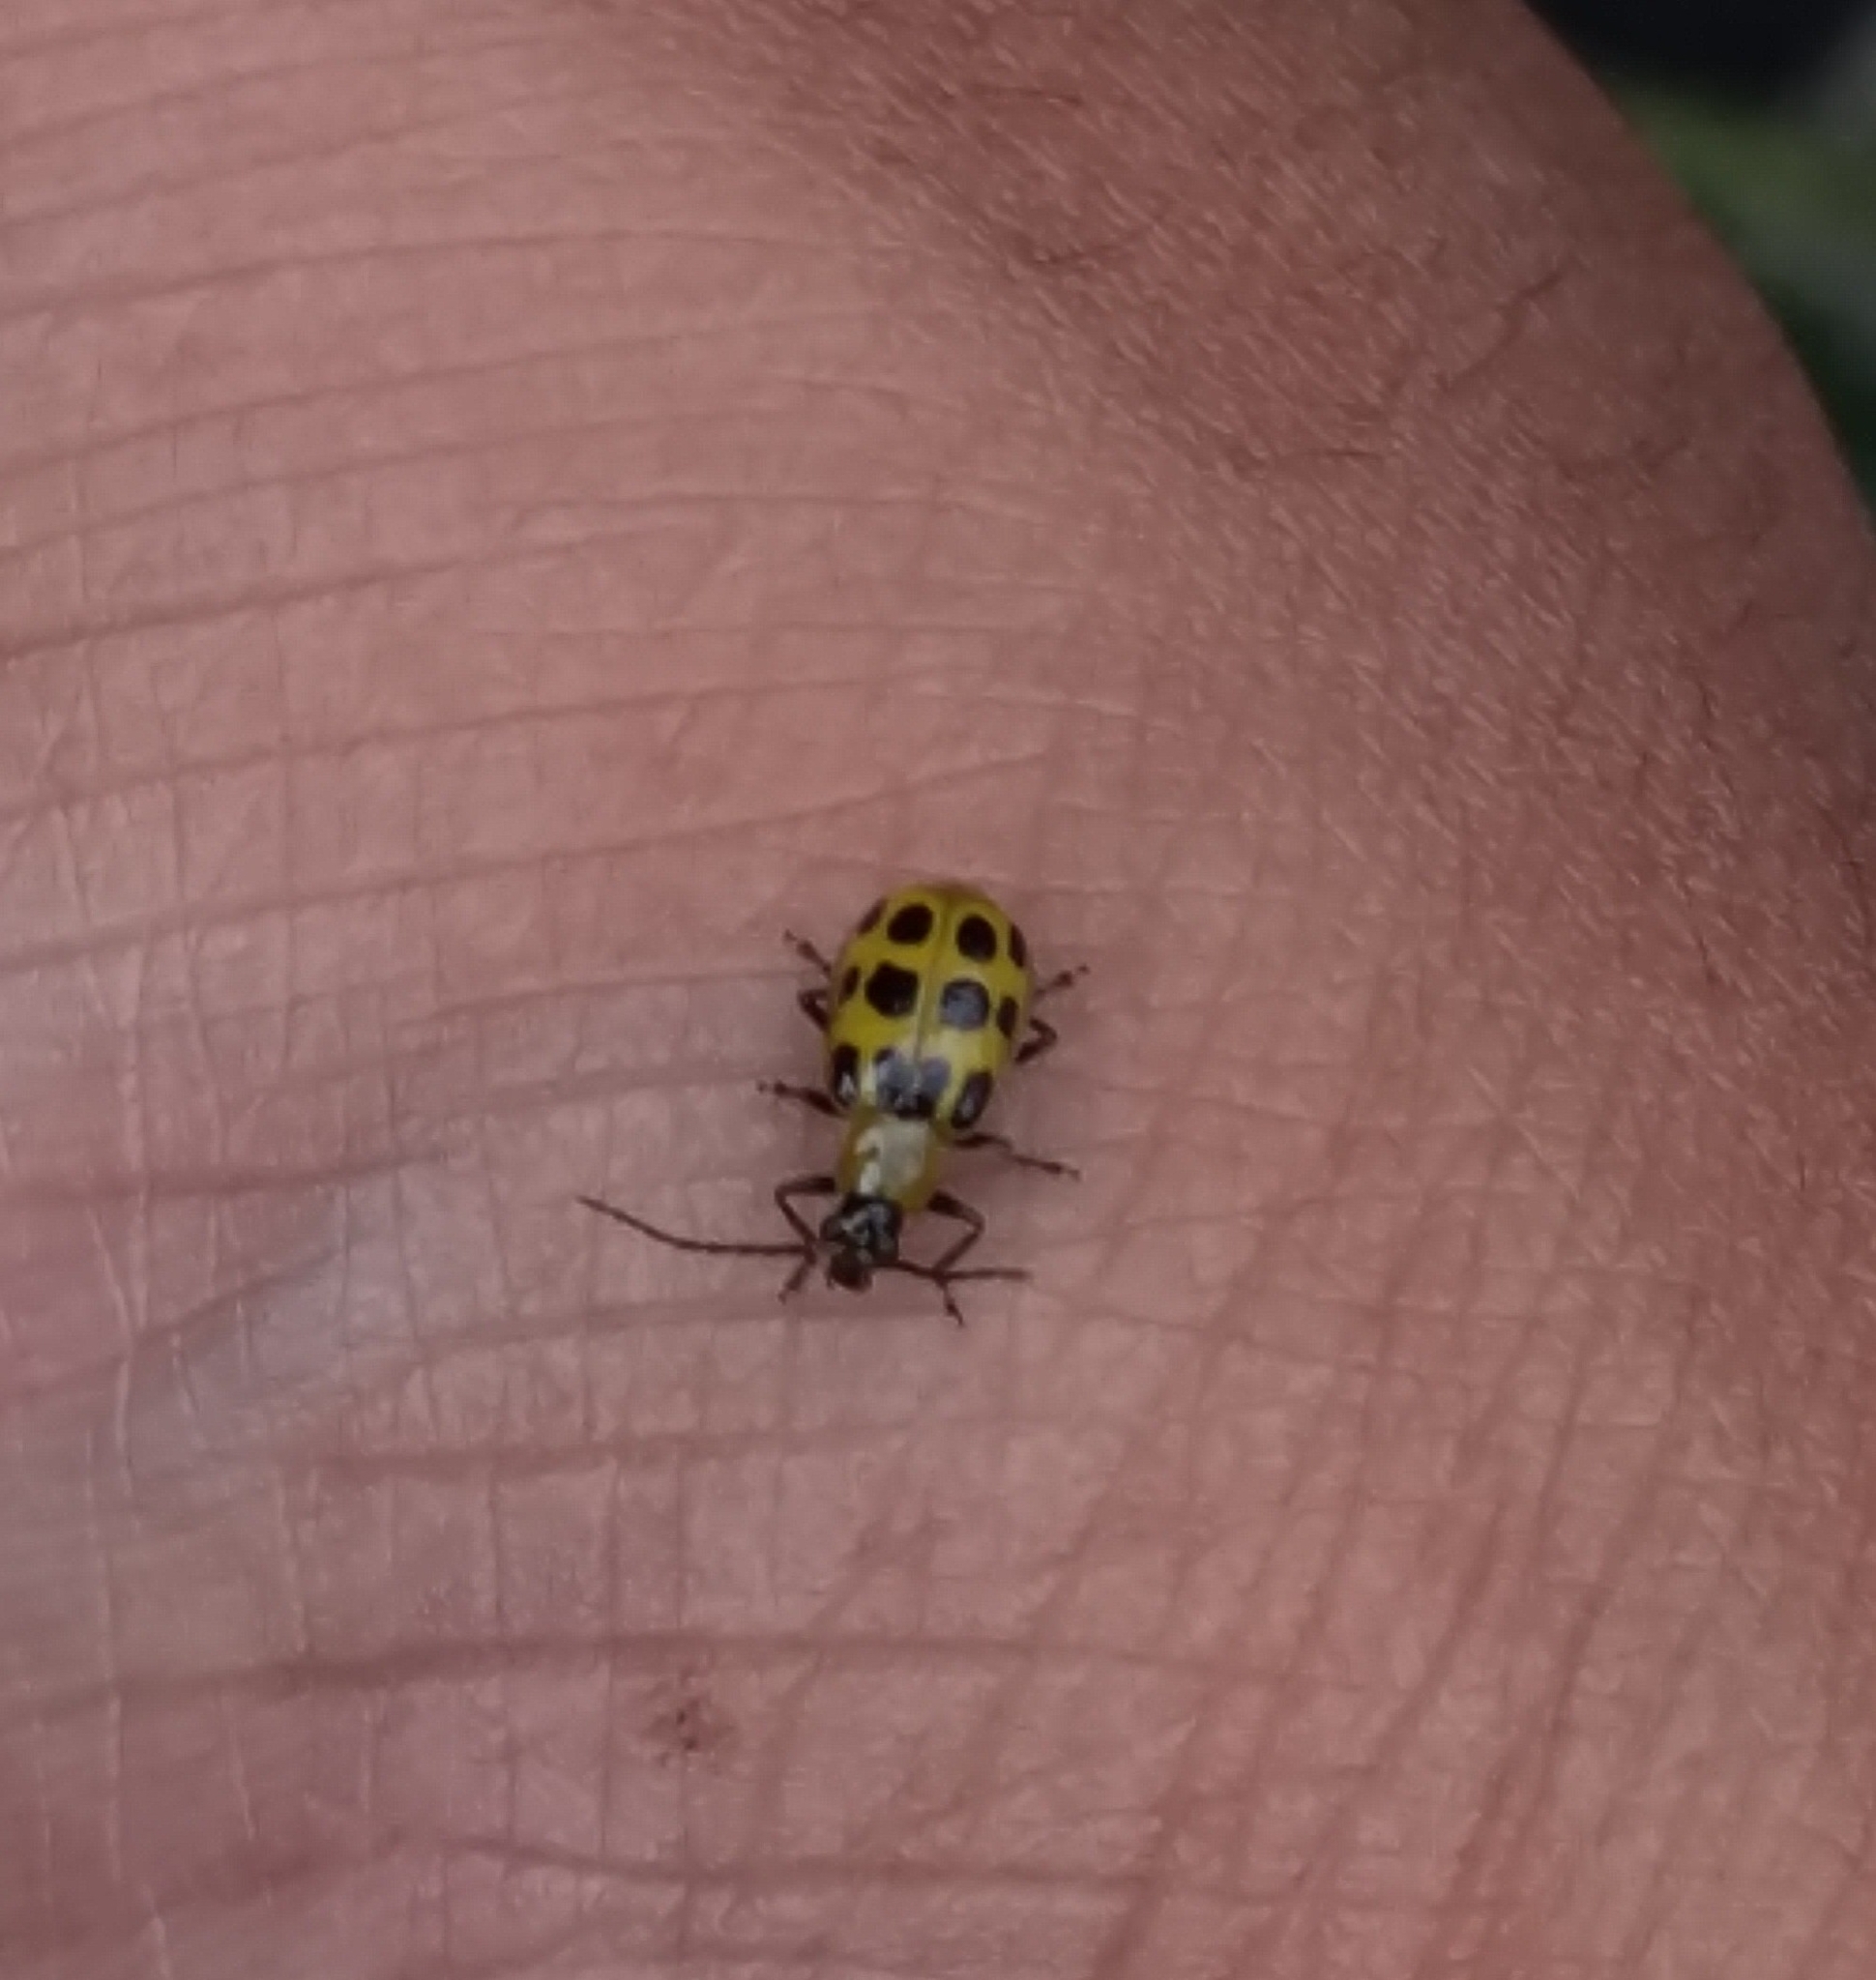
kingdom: Animalia
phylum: Arthropoda
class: Insecta
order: Coleoptera
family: Chrysomelidae
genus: Diabrotica
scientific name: Diabrotica undecimpunctata
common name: Spotted cucumber beetle
